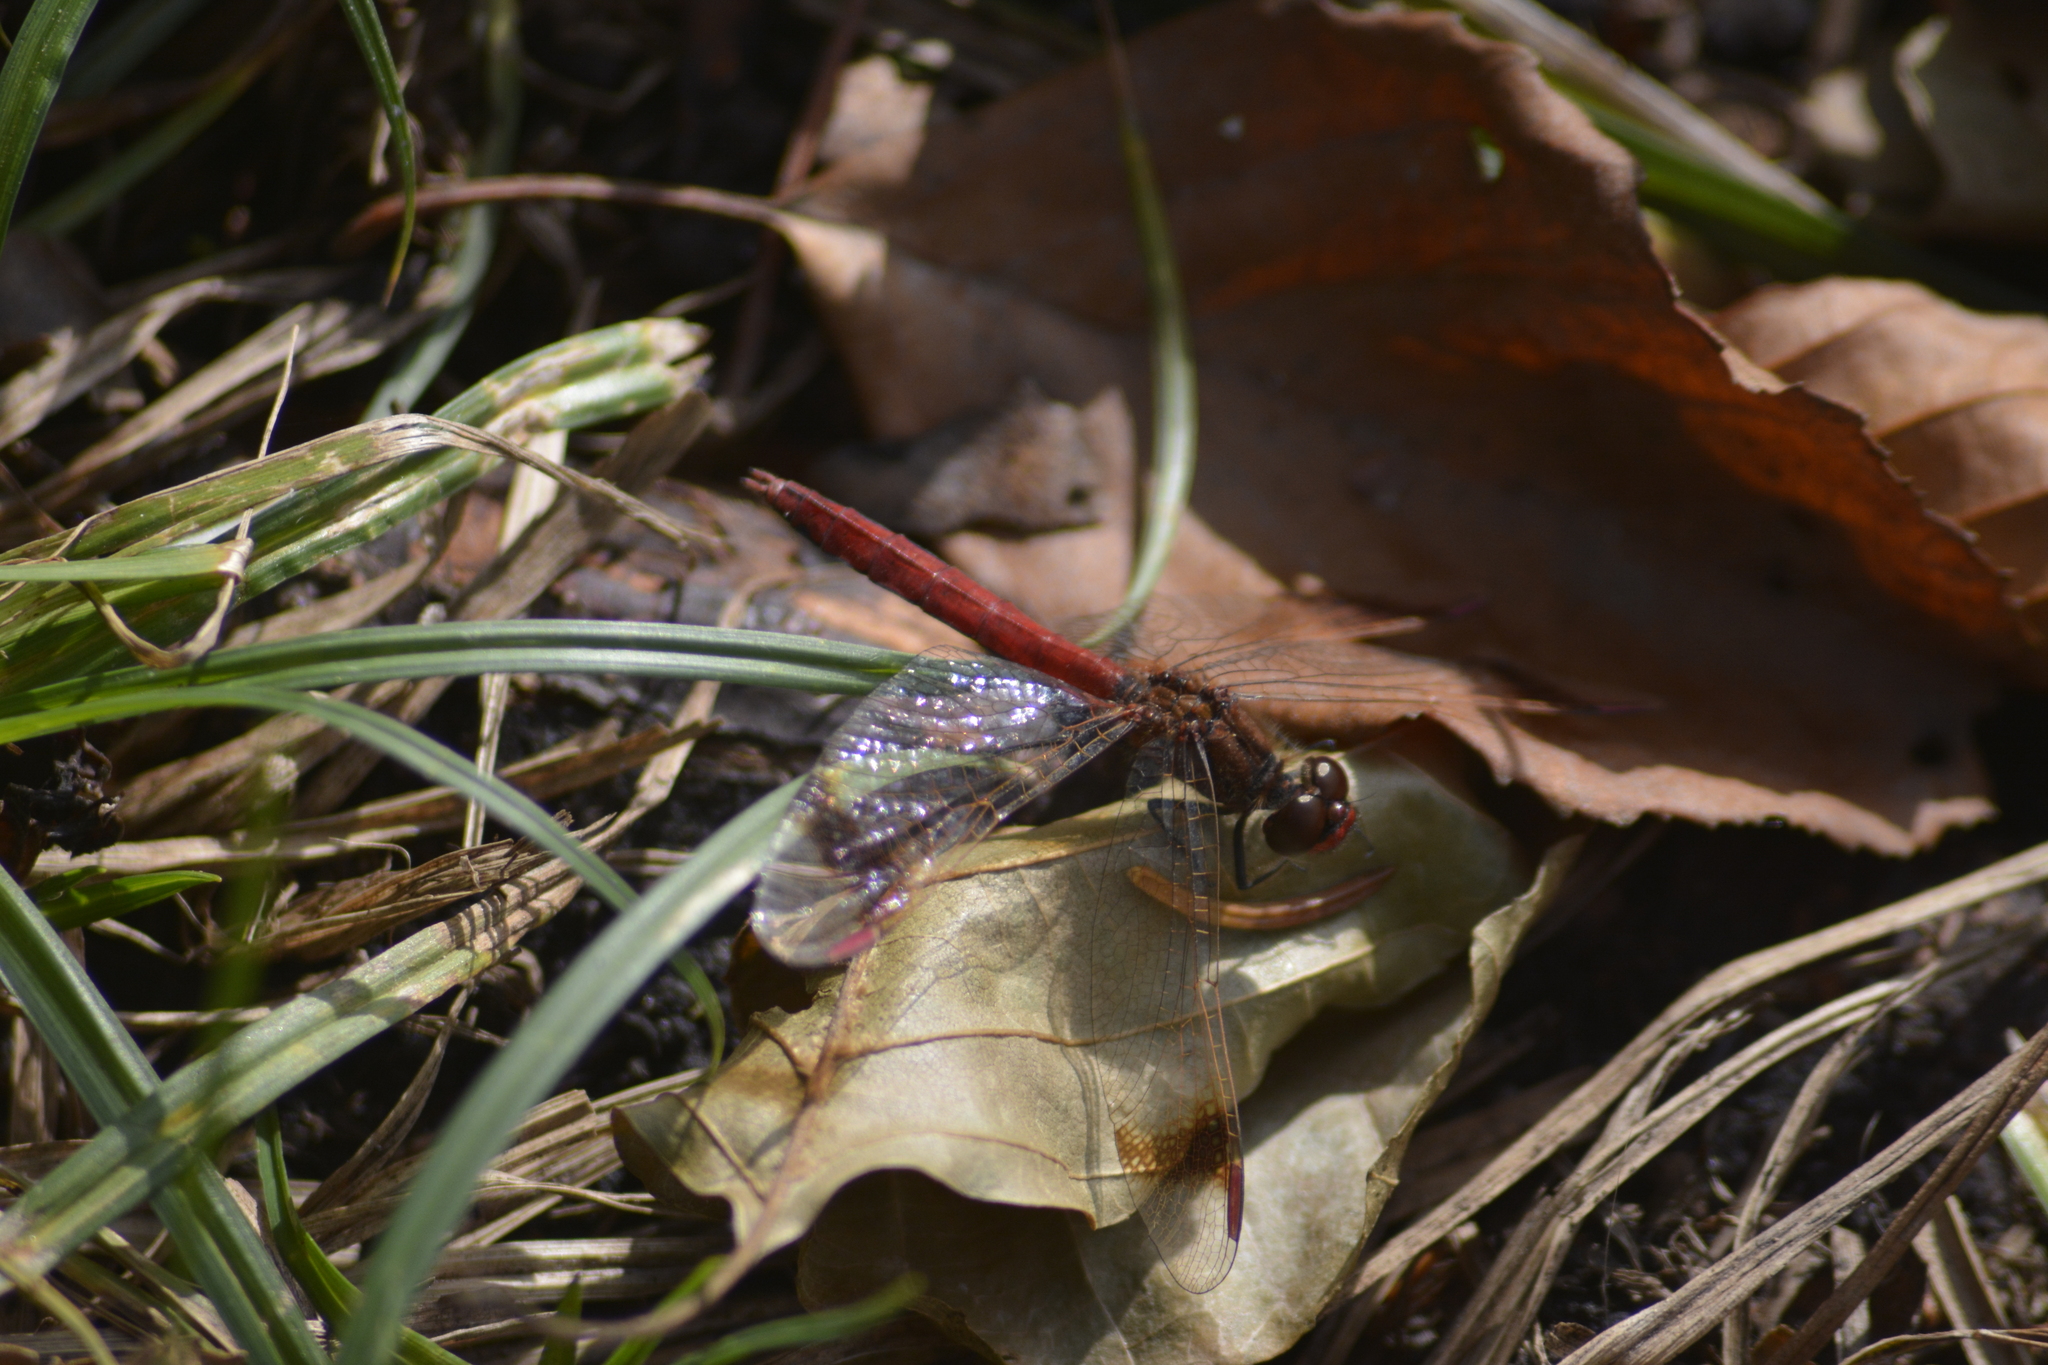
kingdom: Animalia
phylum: Arthropoda
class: Insecta
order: Odonata
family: Libellulidae
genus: Sympetrum
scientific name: Sympetrum pedemontanum
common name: Banded darter
